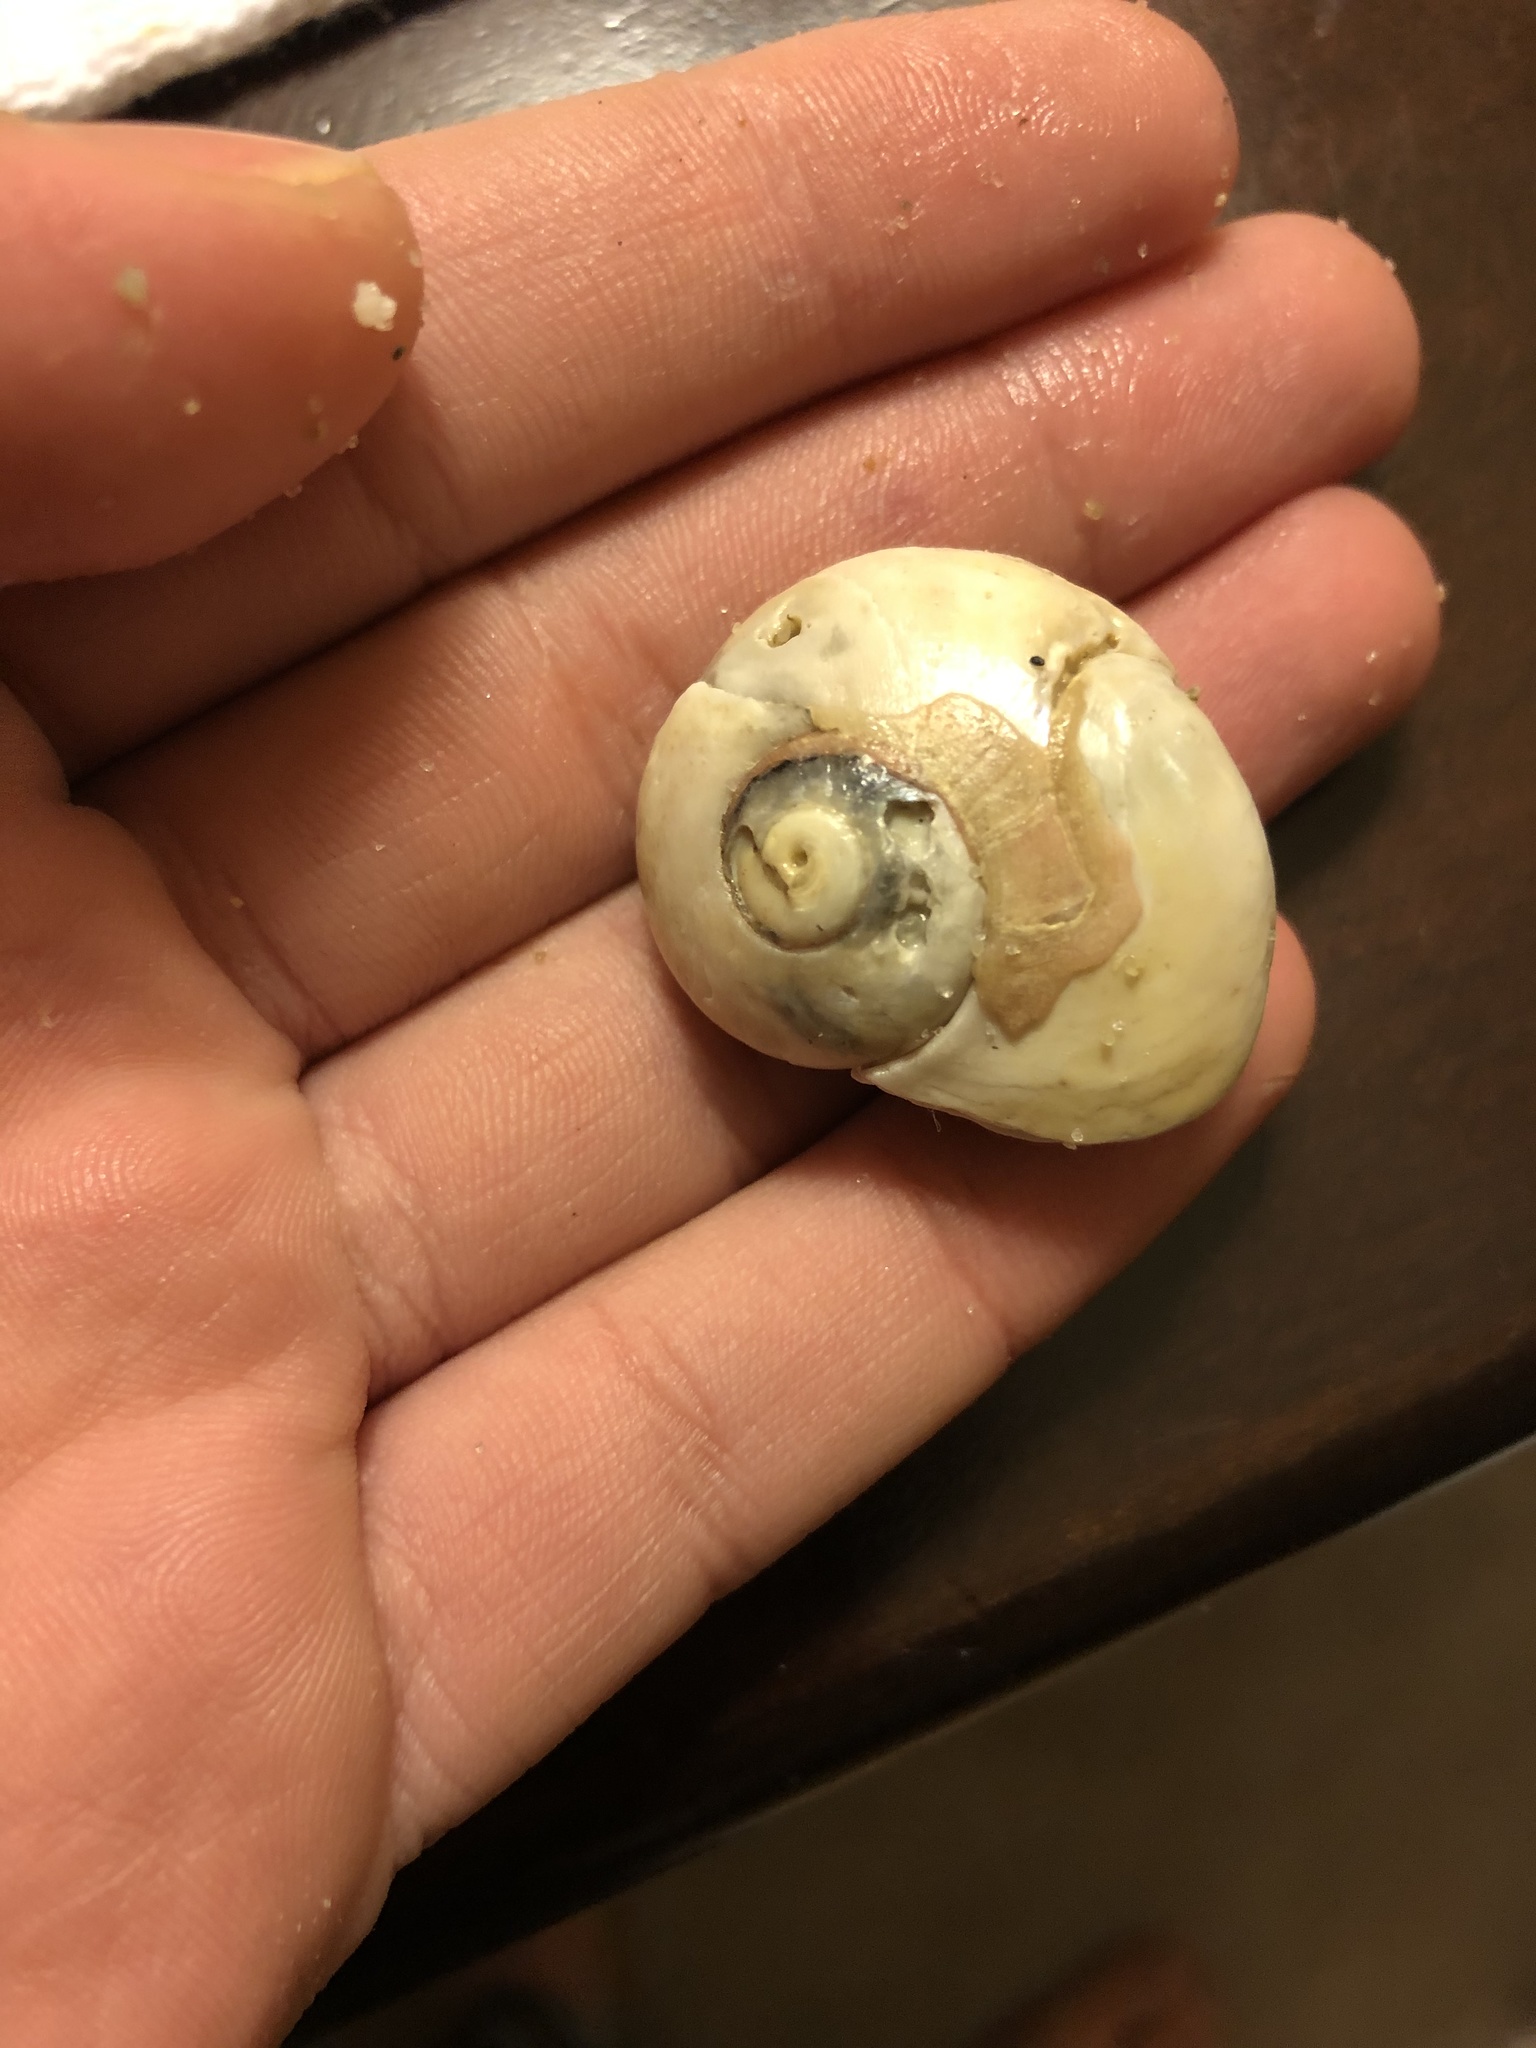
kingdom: Animalia
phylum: Mollusca
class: Gastropoda
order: Trochida
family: Tegulidae
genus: Norrisia
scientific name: Norrisia norrisii
